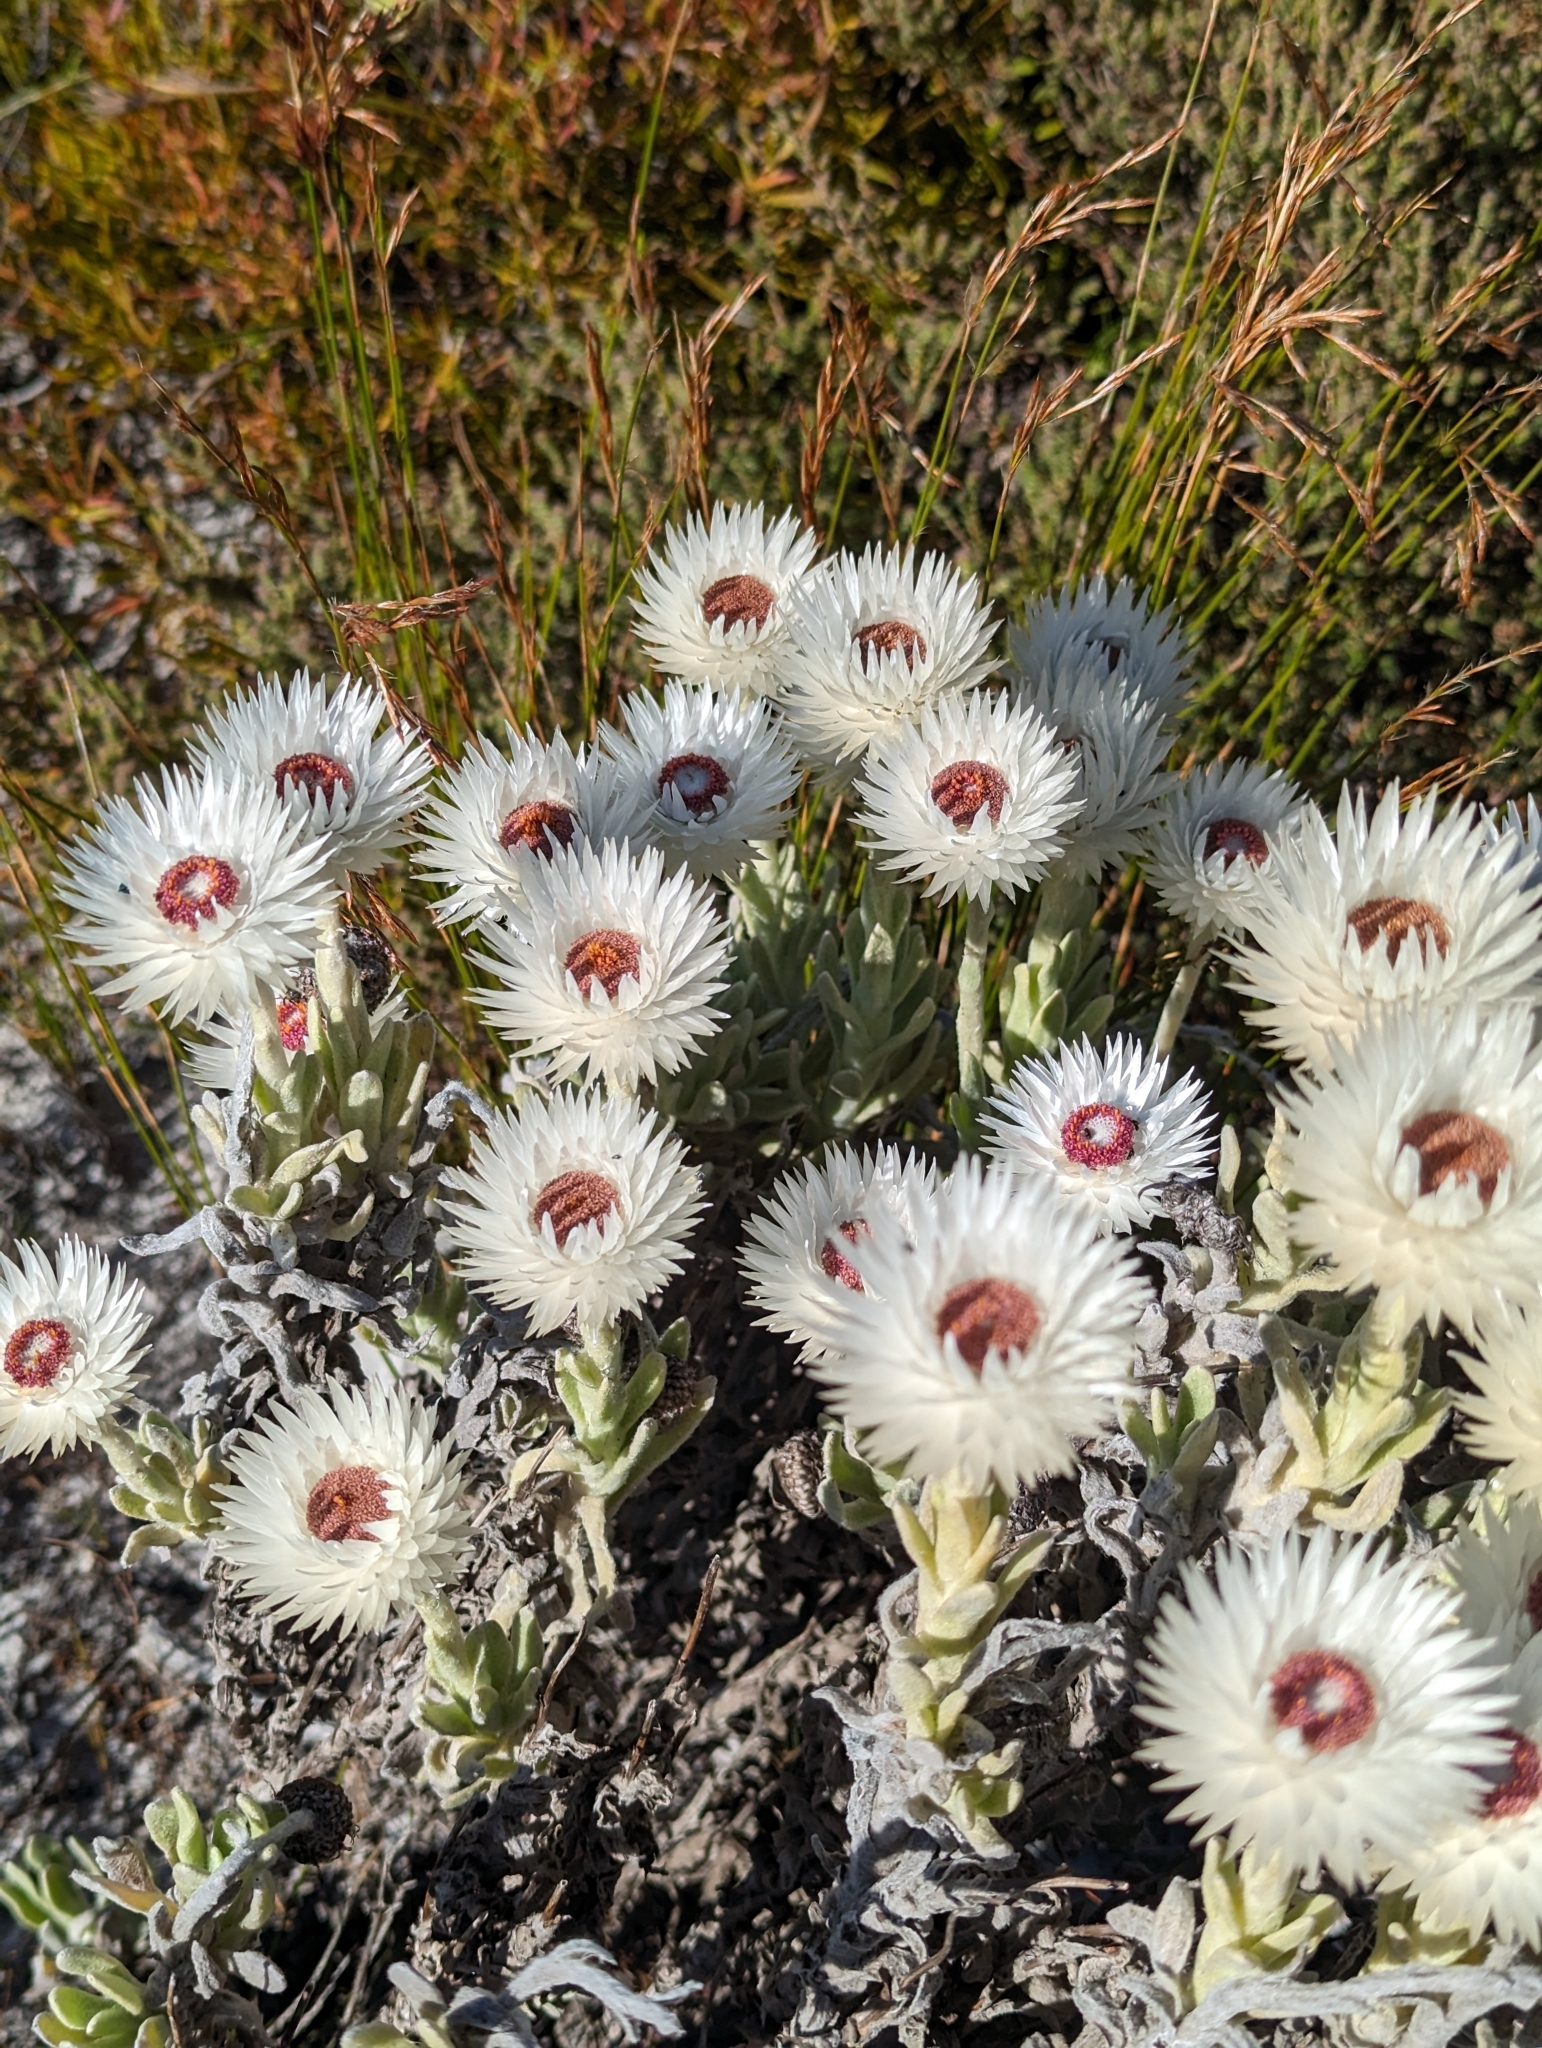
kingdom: Plantae
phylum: Tracheophyta
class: Magnoliopsida
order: Asterales
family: Asteraceae
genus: Syncarpha
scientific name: Syncarpha vestita
